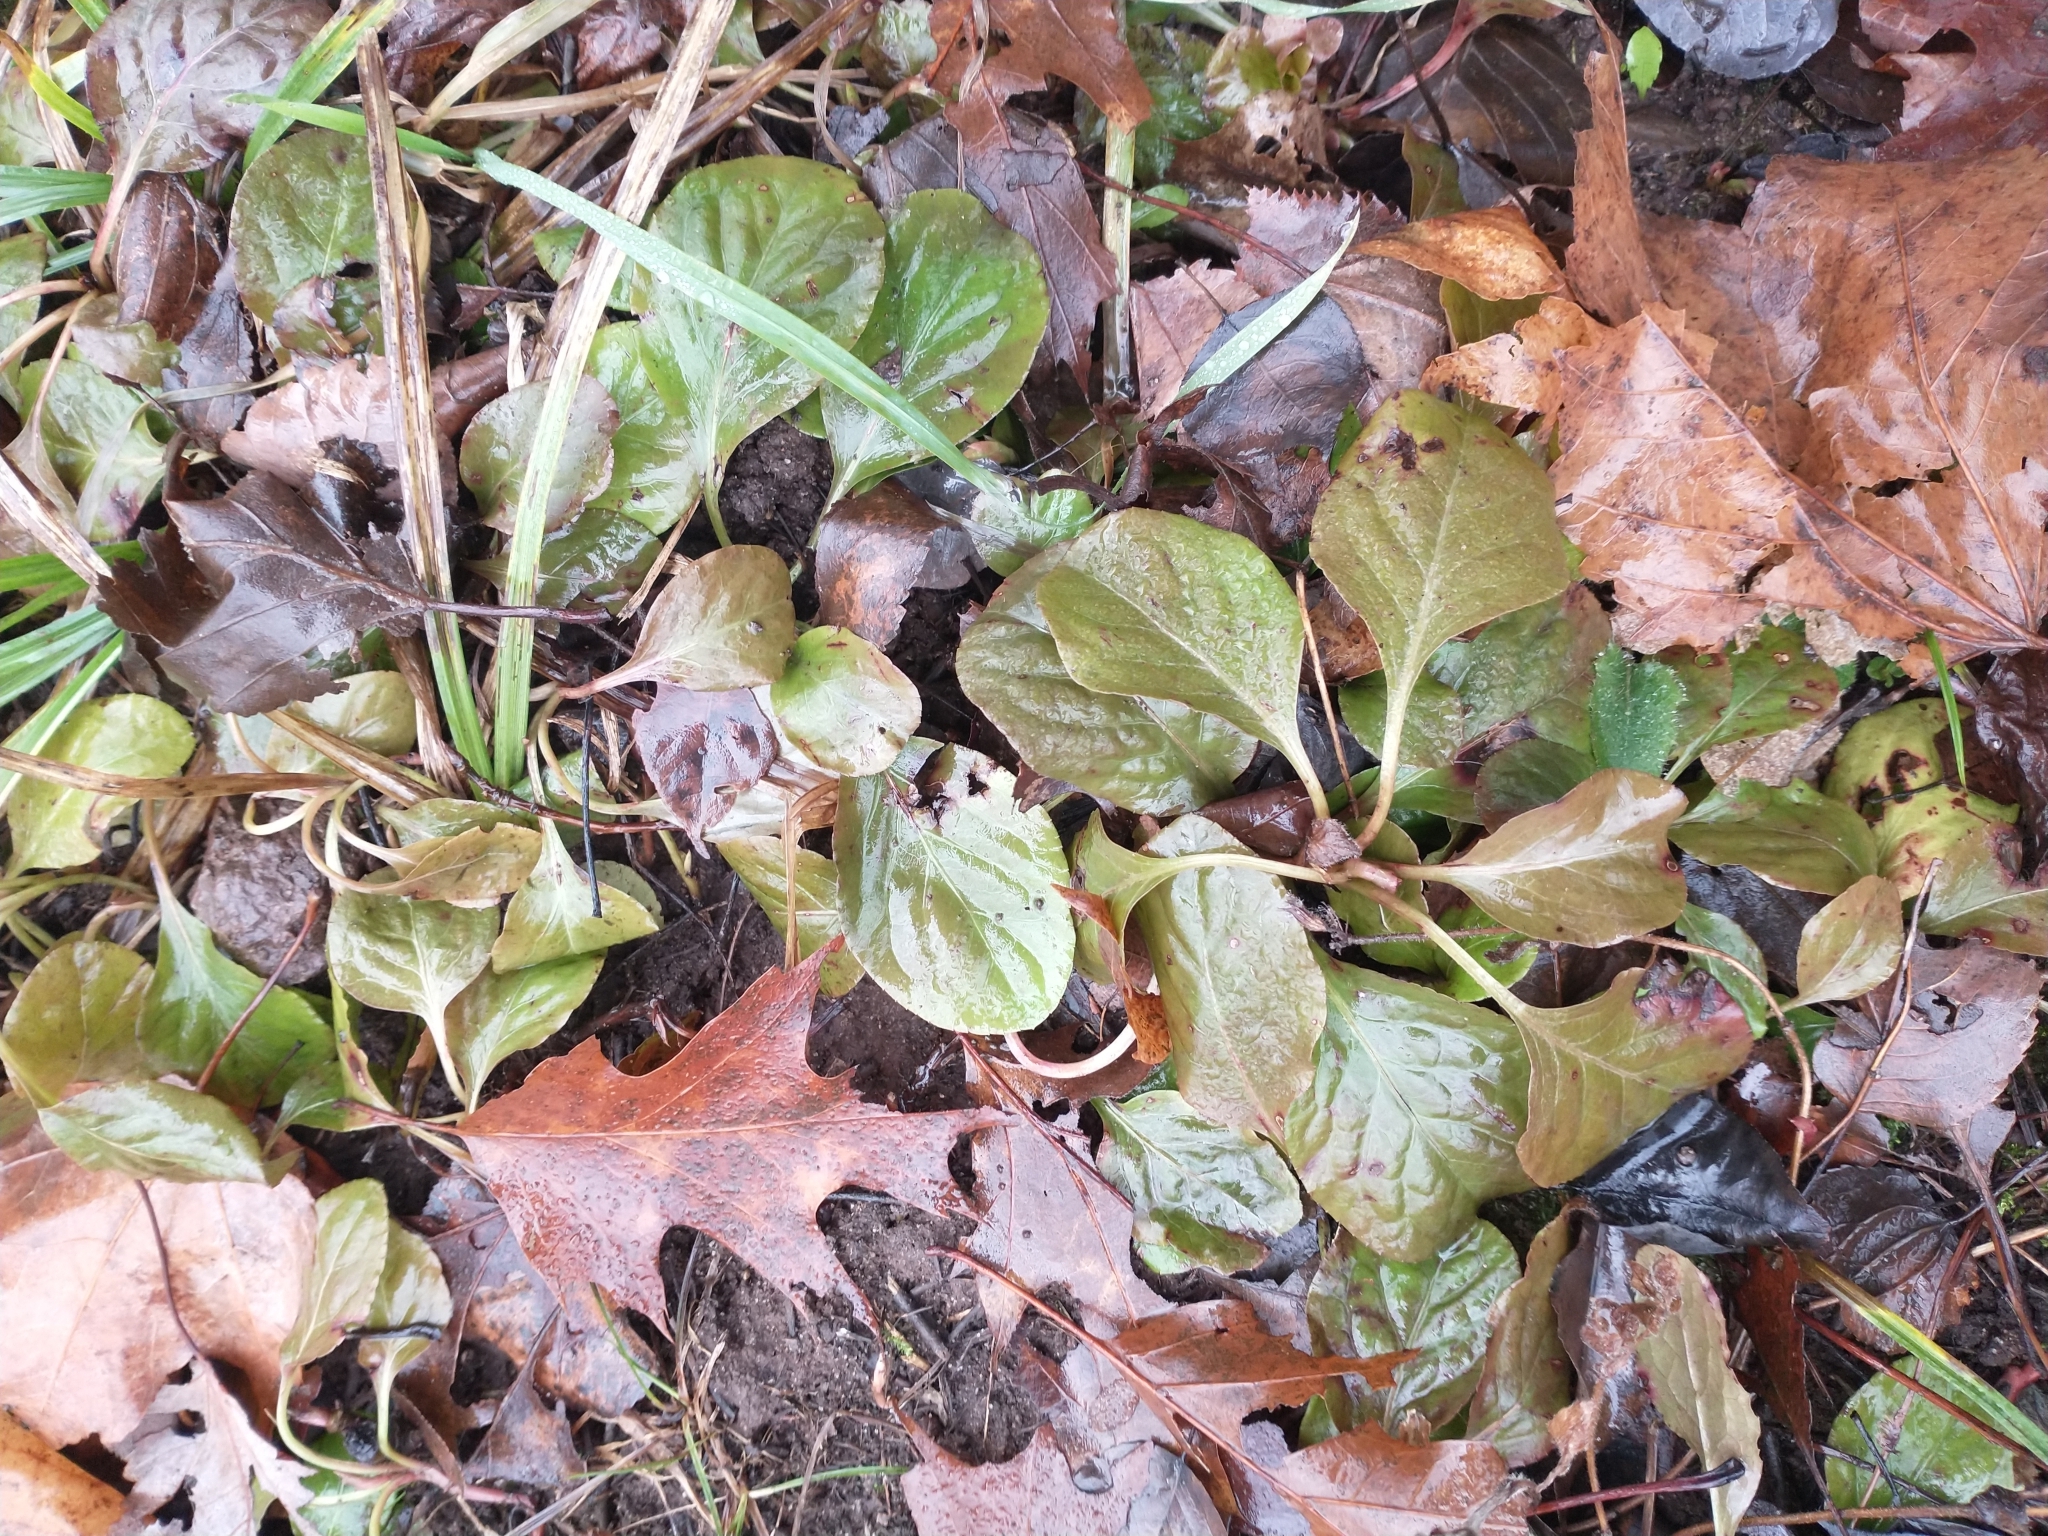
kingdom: Plantae
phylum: Tracheophyta
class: Magnoliopsida
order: Ericales
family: Ericaceae
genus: Pyrola
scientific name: Pyrola elliptica
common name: Shinleaf
